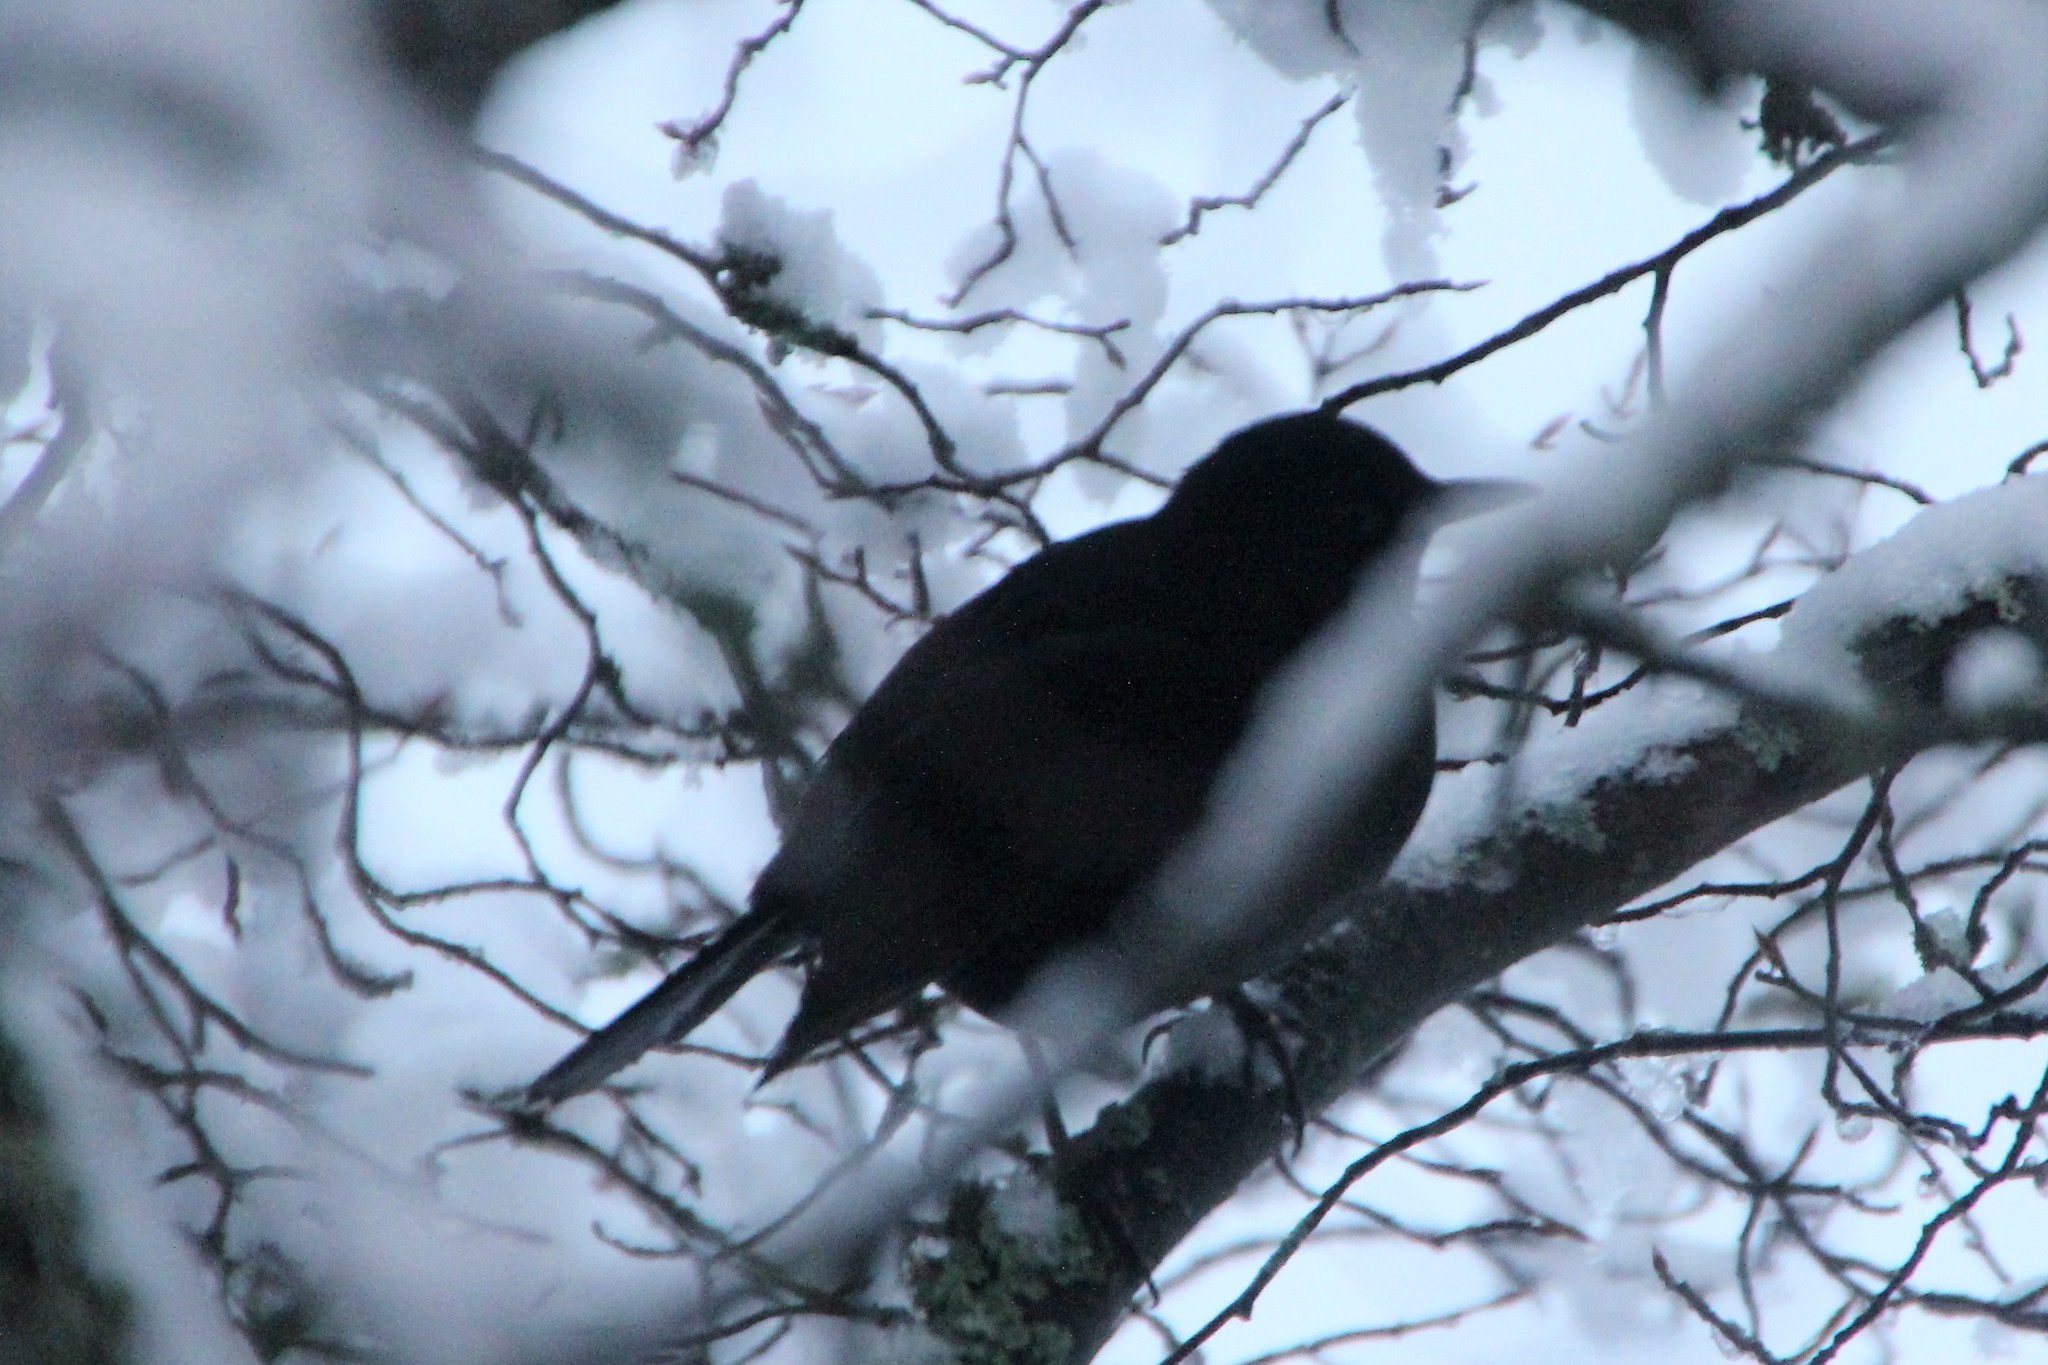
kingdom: Animalia
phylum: Chordata
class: Aves
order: Passeriformes
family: Turdidae
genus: Turdus
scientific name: Turdus merula
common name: Common blackbird
